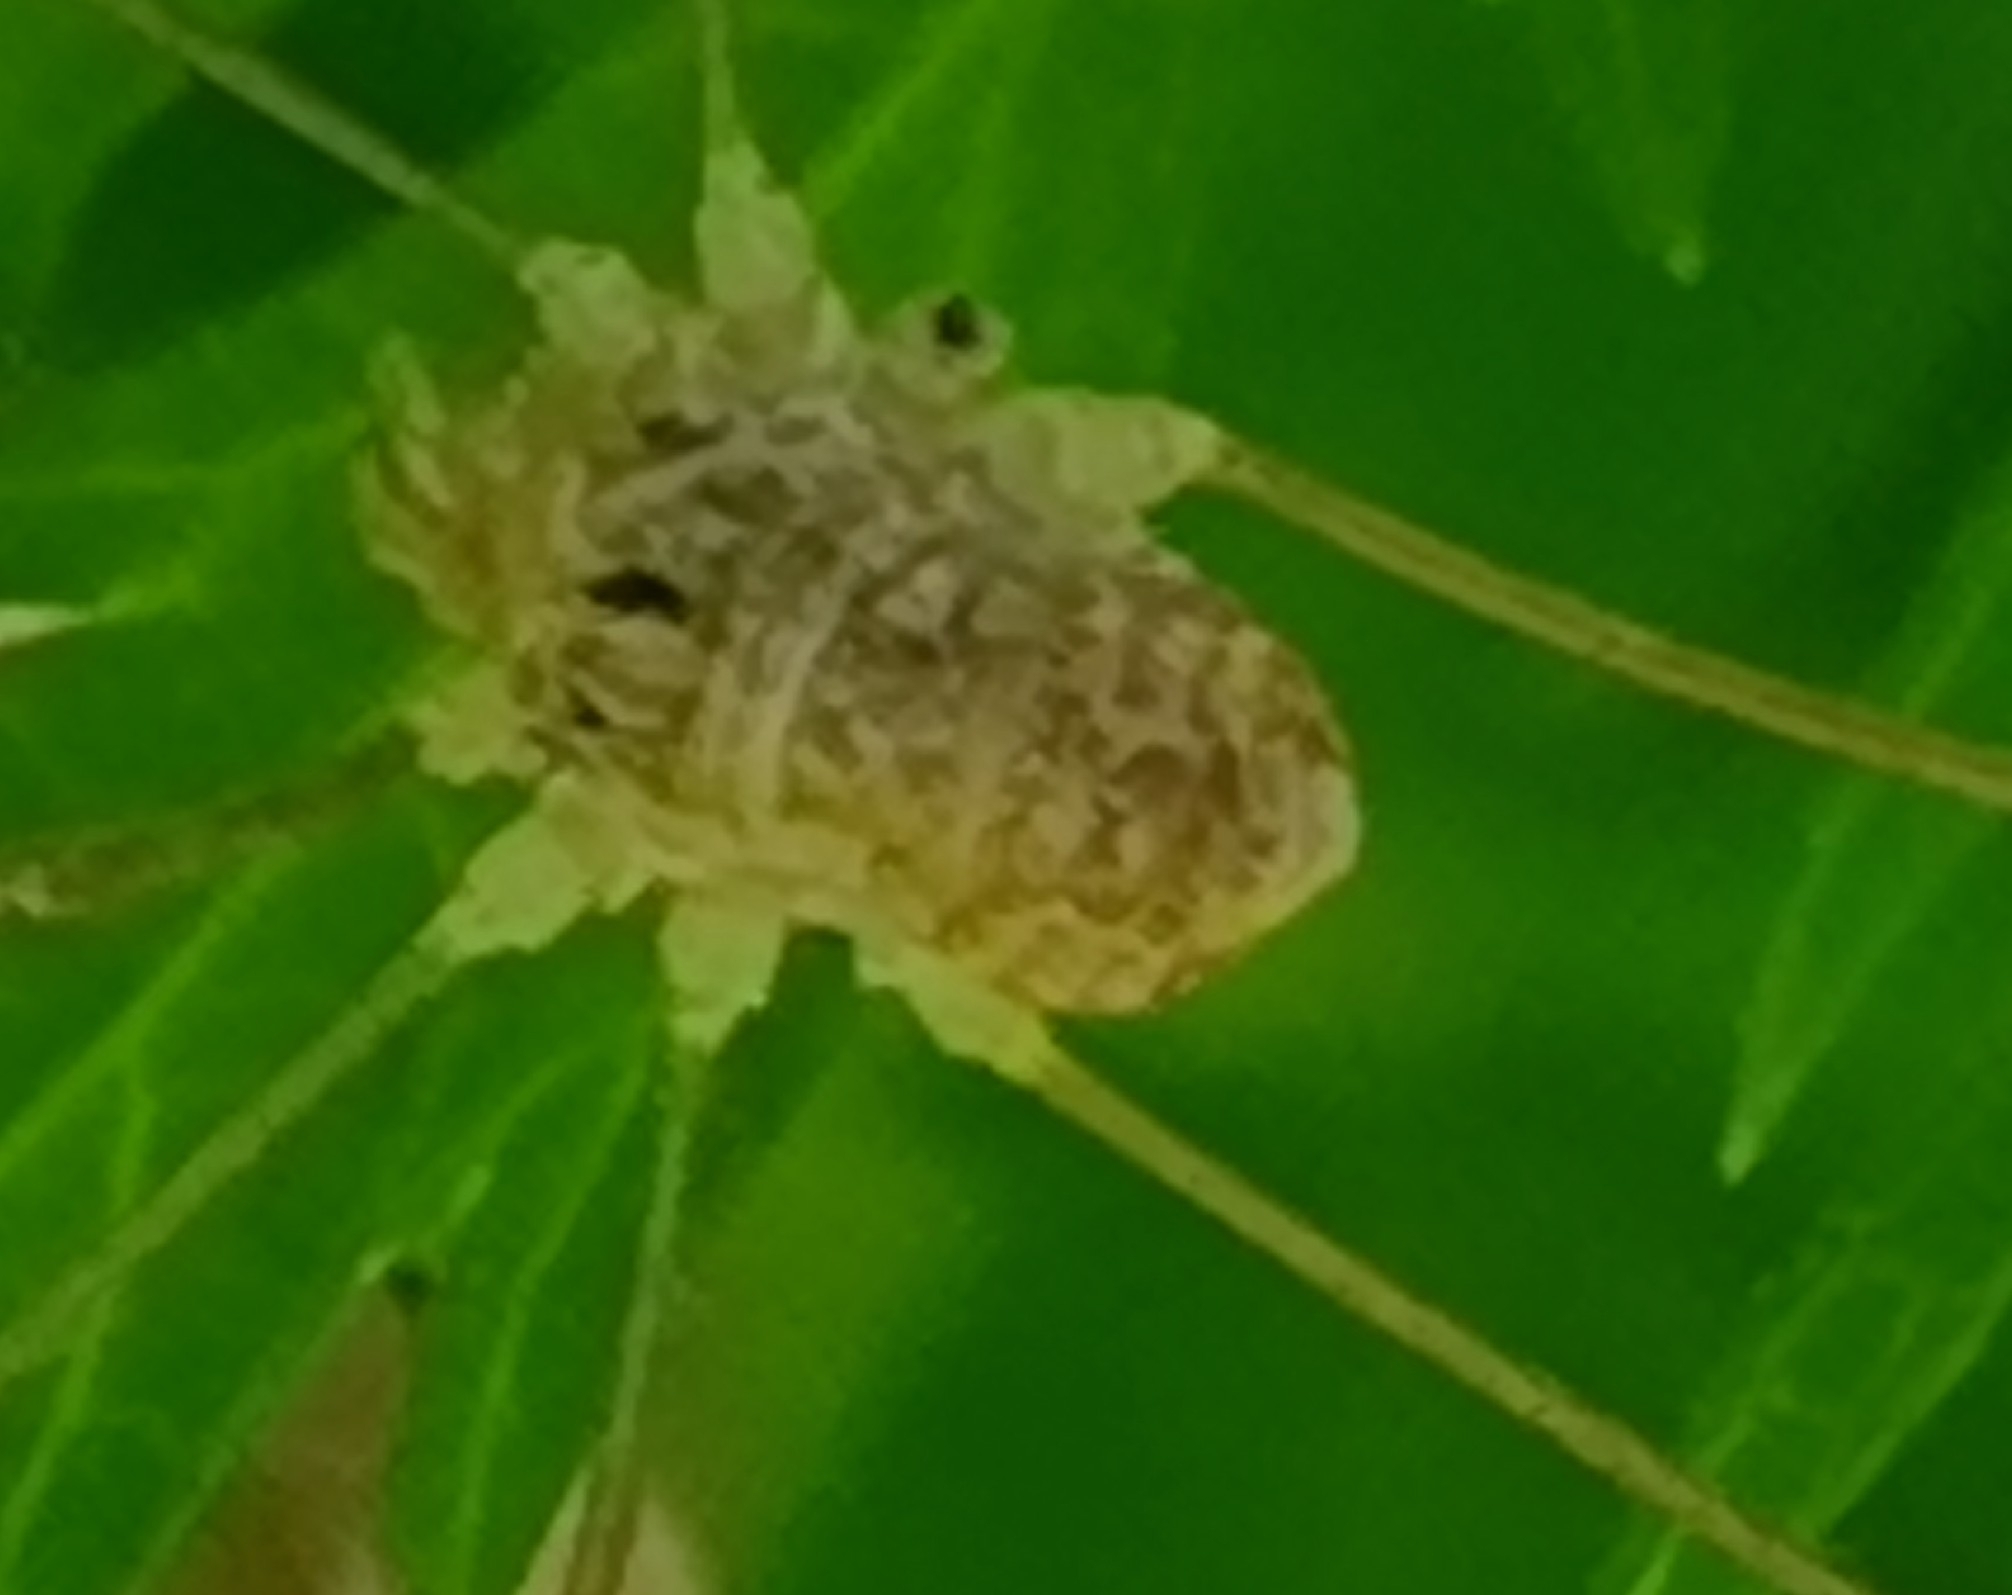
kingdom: Animalia
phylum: Arthropoda
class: Arachnida
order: Opiliones
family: Phalangiidae
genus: Rilaena
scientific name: Rilaena triangularis
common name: Spring harvestman
